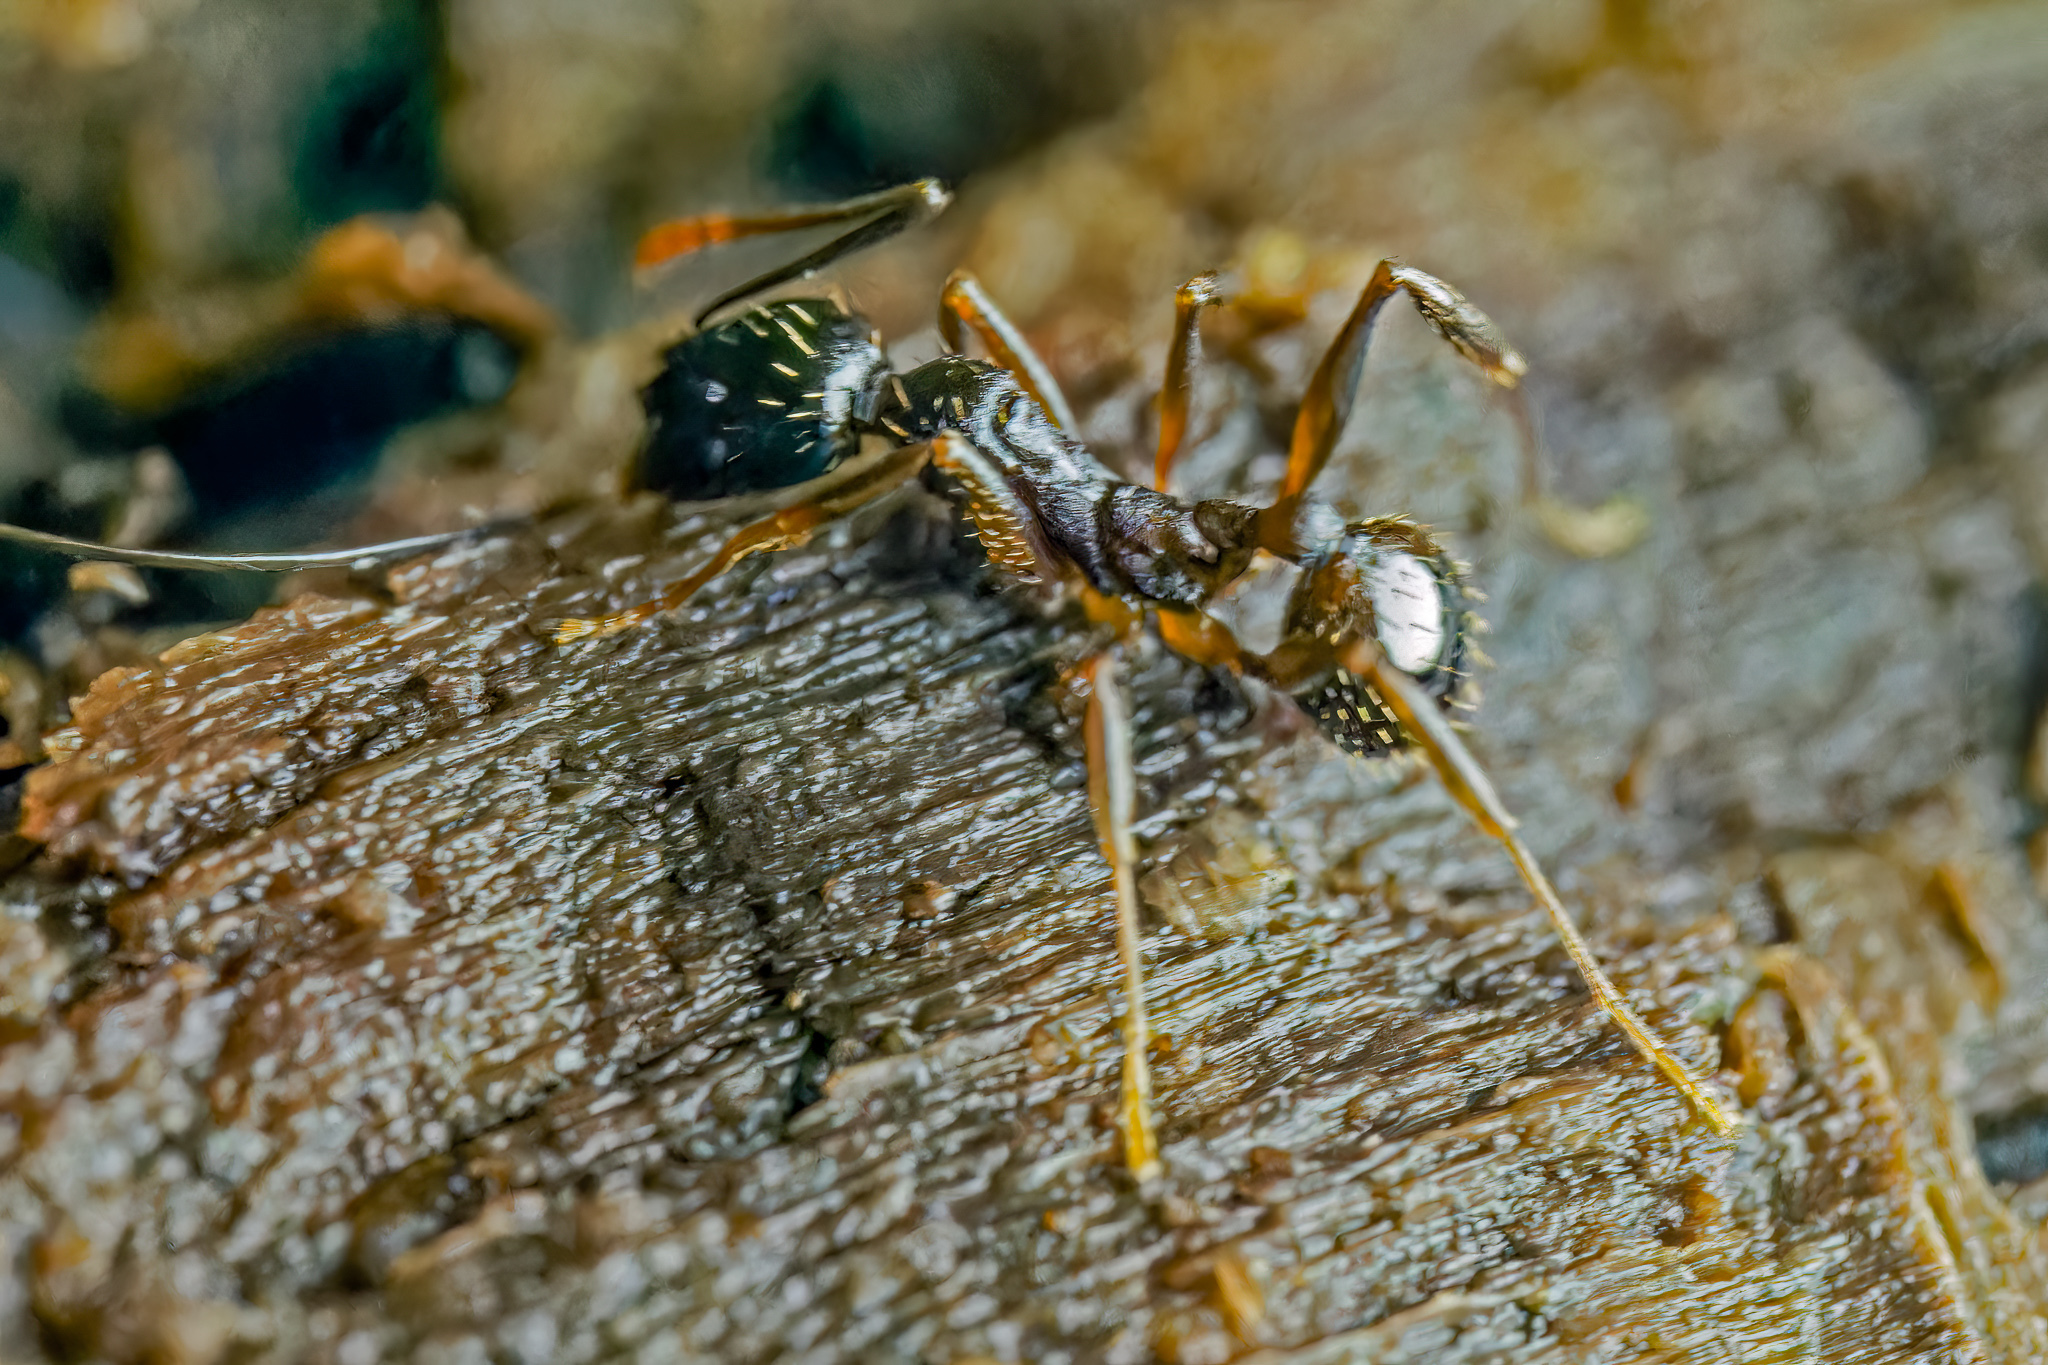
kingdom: Animalia
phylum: Arthropoda
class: Insecta
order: Hymenoptera
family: Formicidae
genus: Aphaenogaster
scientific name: Aphaenogaster picea
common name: Pitch-black collared ant
